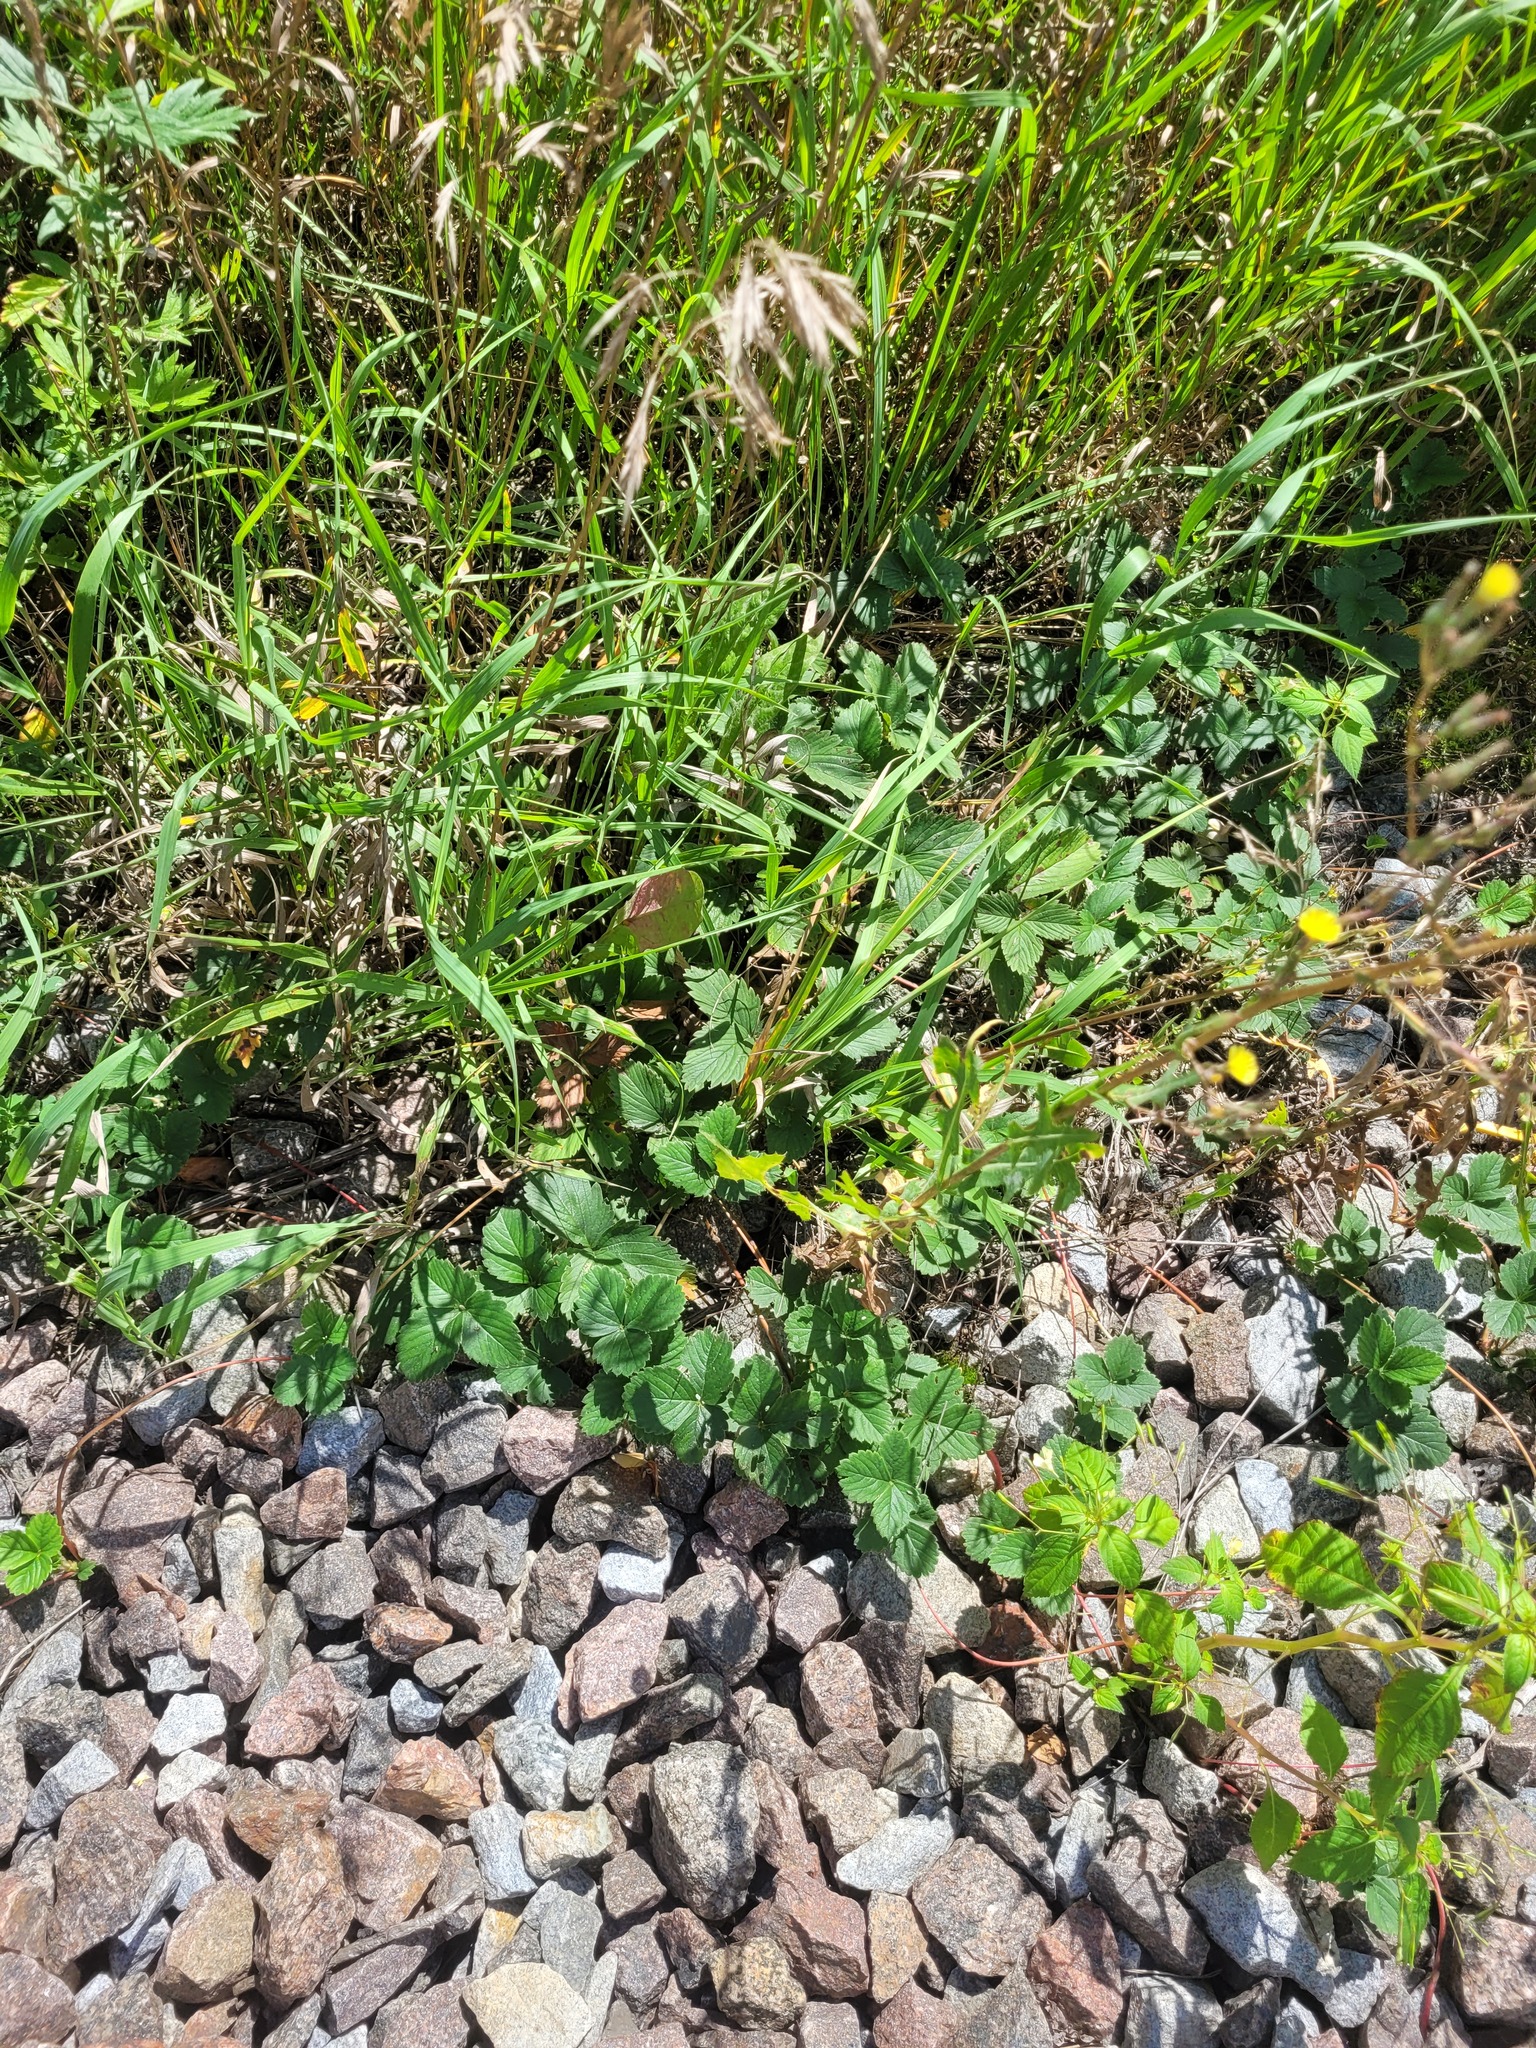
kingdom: Plantae
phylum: Tracheophyta
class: Magnoliopsida
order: Rosales
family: Rosaceae
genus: Fragaria
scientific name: Fragaria ananassa
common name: Garden strawberry
